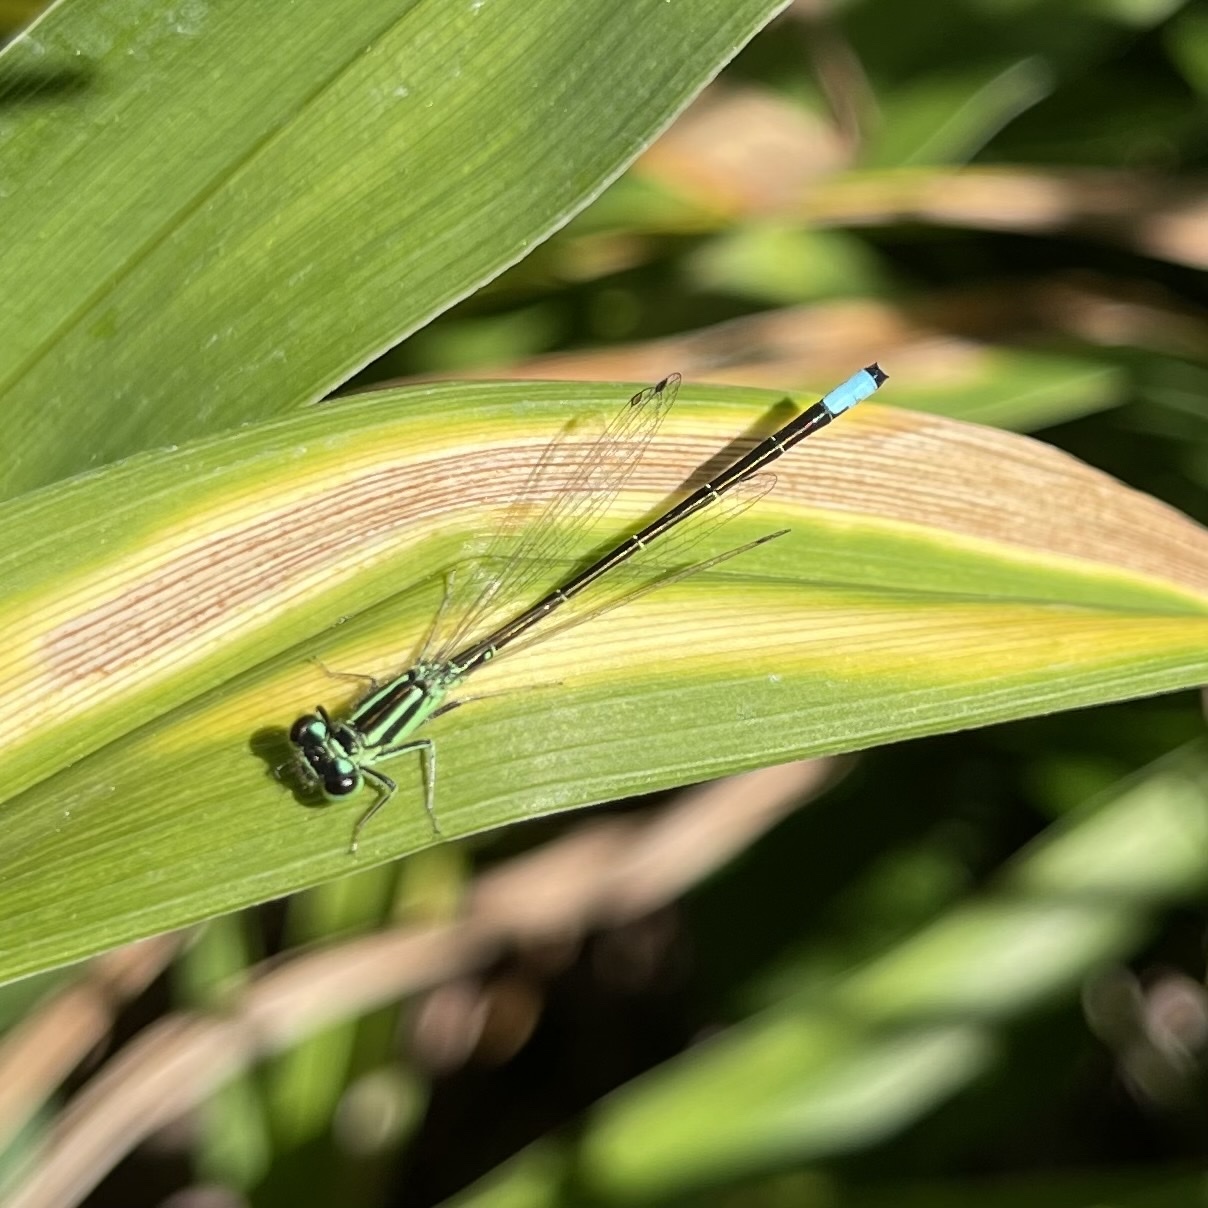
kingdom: Animalia
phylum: Arthropoda
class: Insecta
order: Odonata
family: Coenagrionidae
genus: Ischnura
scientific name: Ischnura verticalis
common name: Eastern forktail
